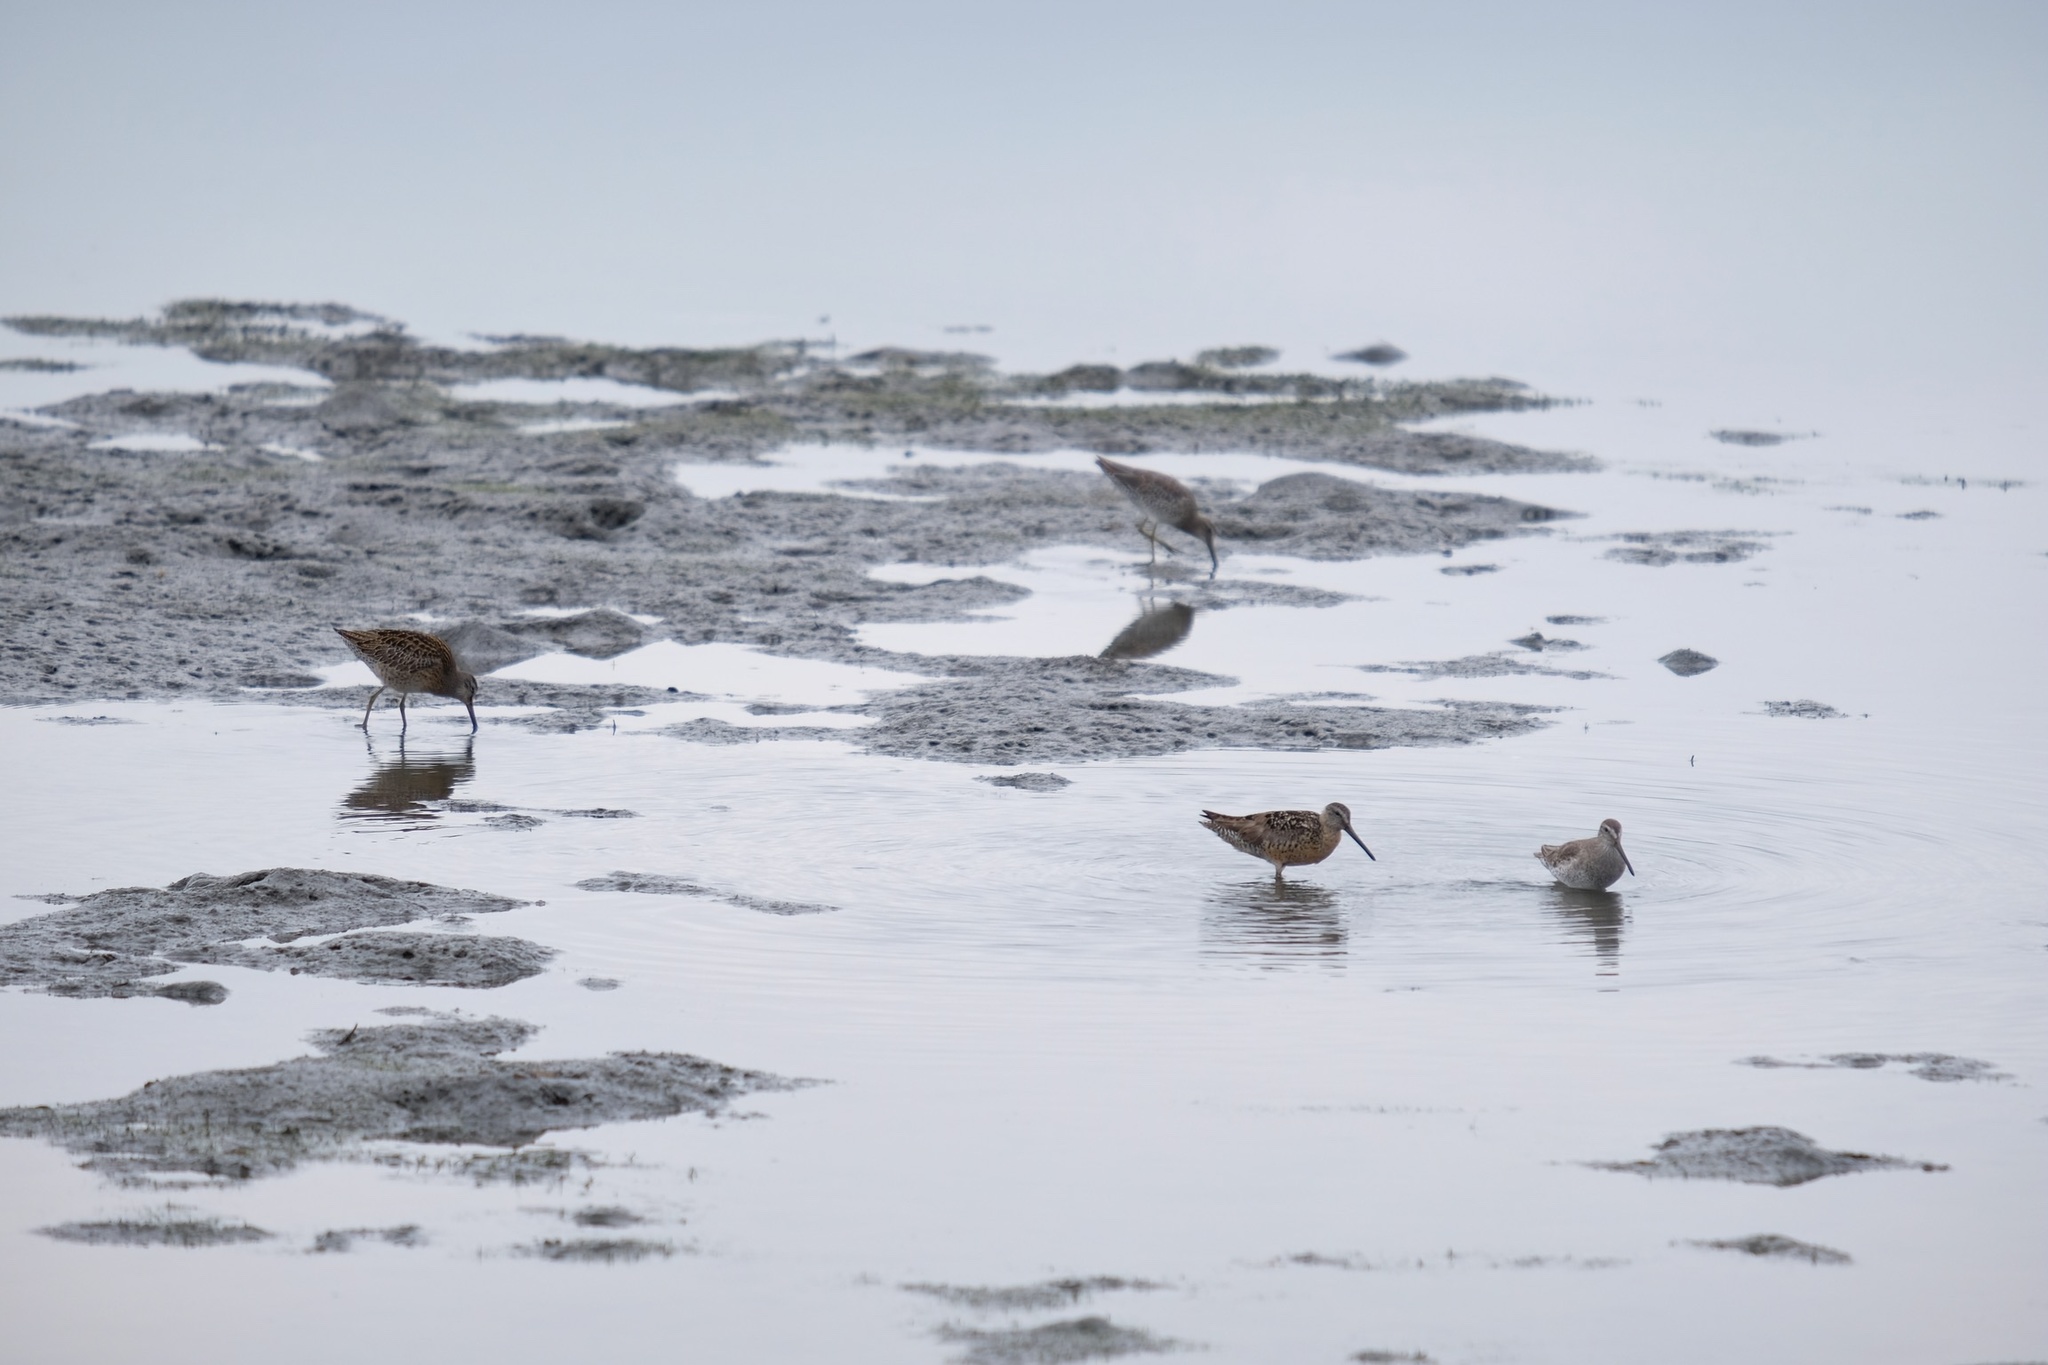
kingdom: Animalia
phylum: Chordata
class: Aves
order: Charadriiformes
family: Scolopacidae
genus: Limnodromus
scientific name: Limnodromus griseus
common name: Short-billed dowitcher
